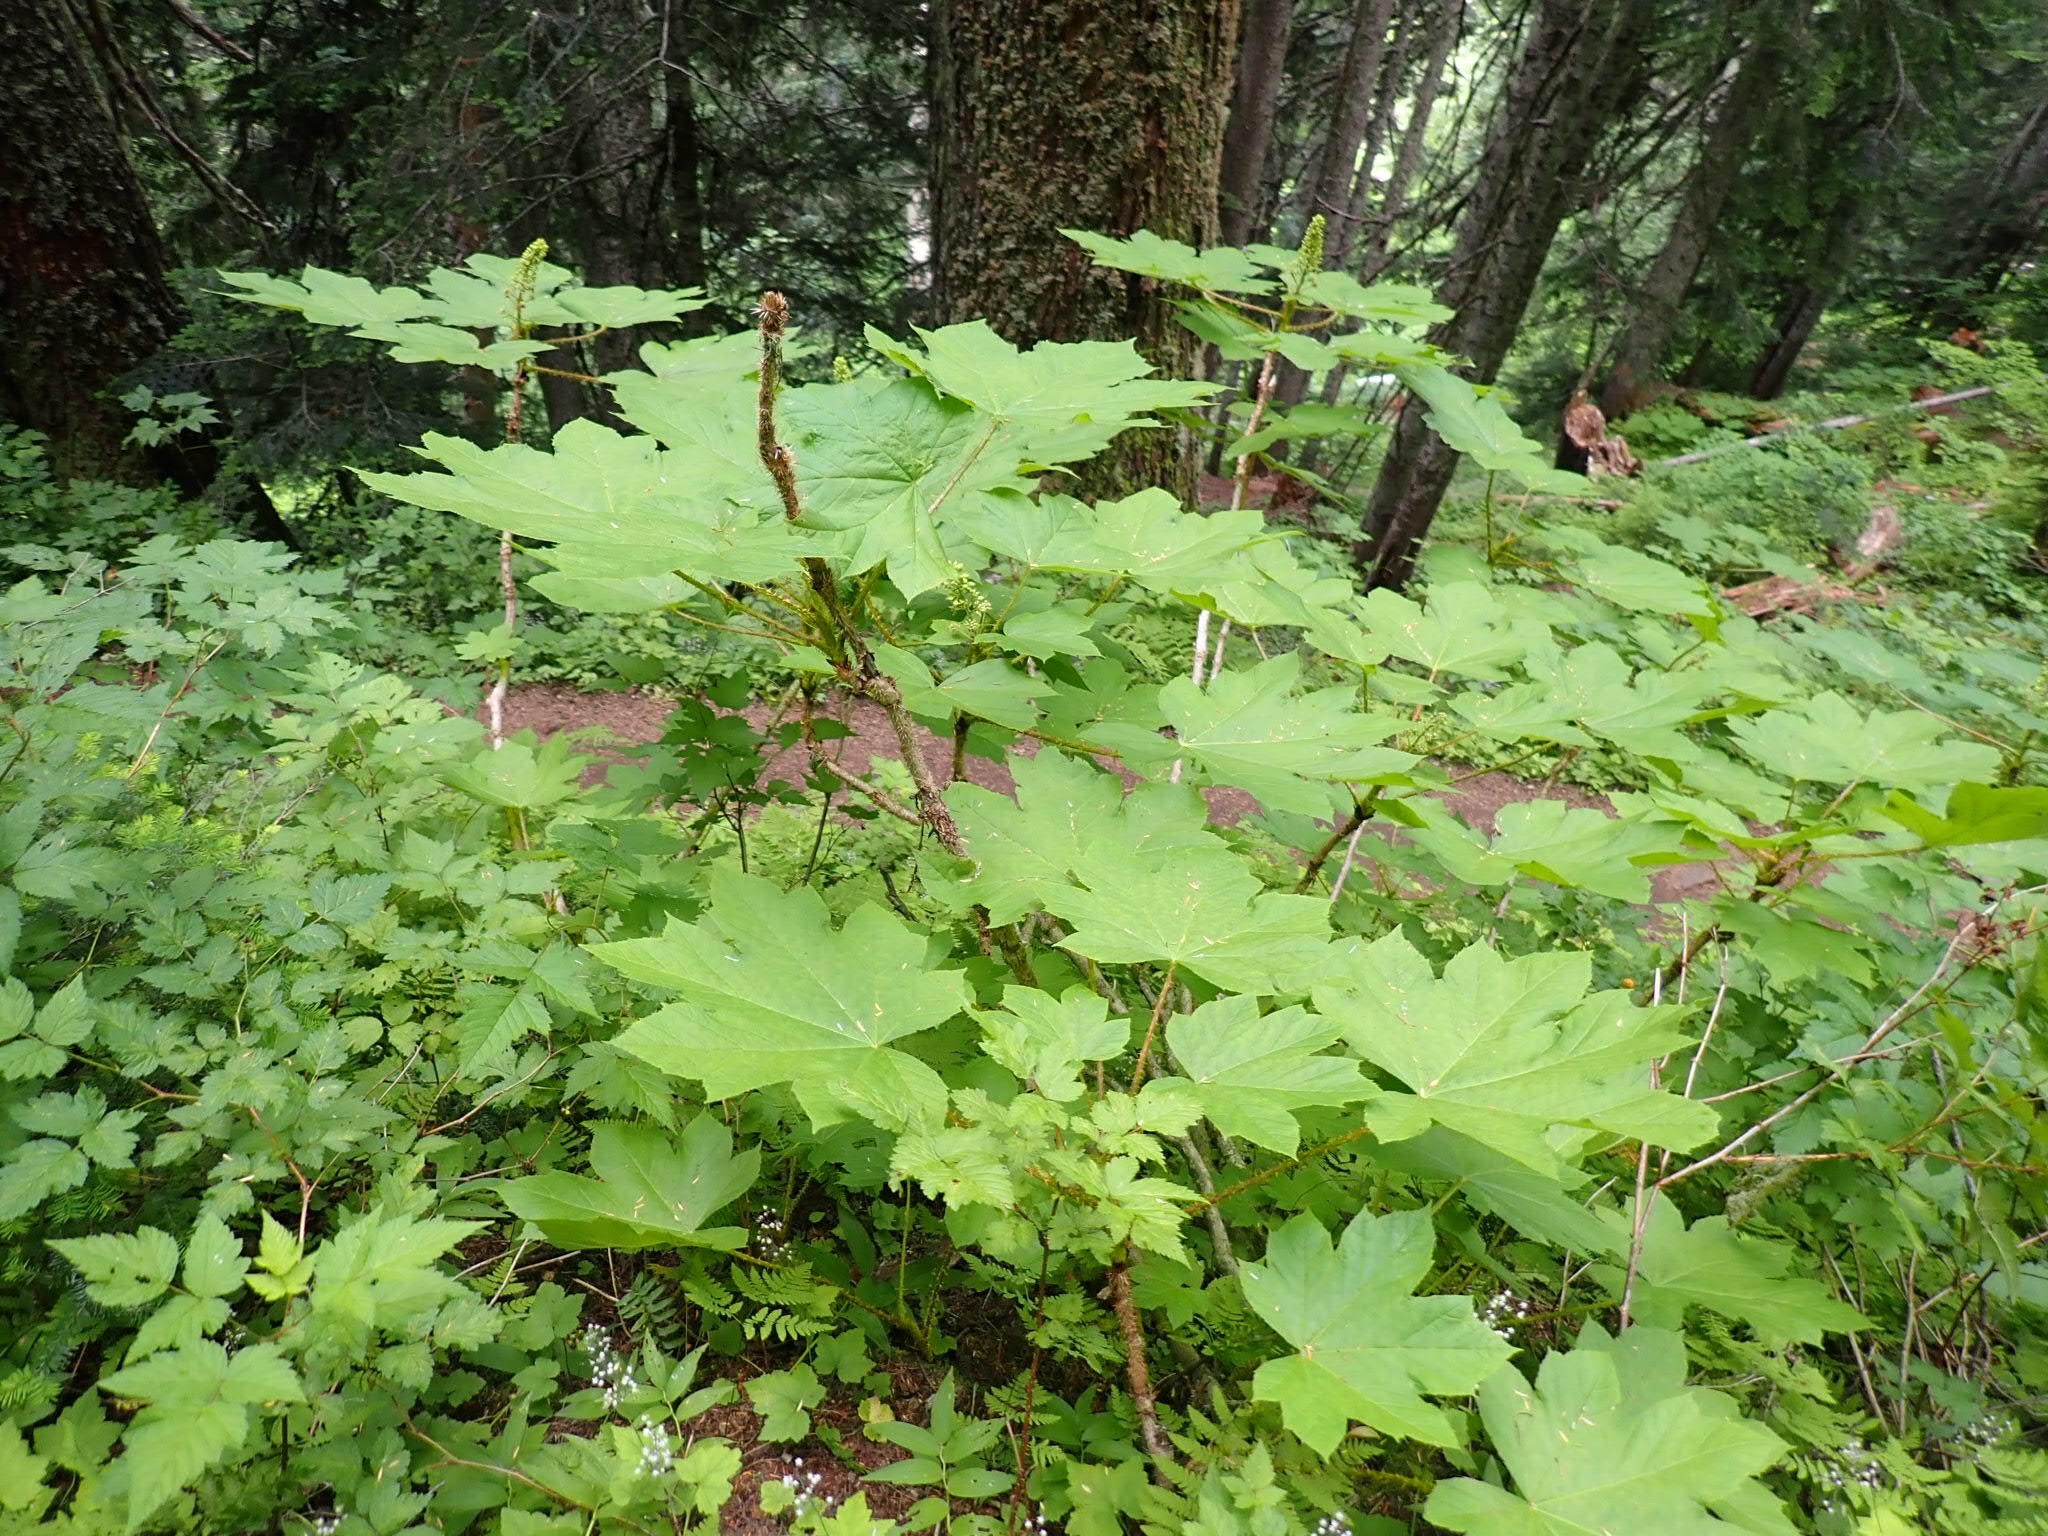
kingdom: Plantae
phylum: Tracheophyta
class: Magnoliopsida
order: Apiales
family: Araliaceae
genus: Oplopanax
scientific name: Oplopanax horridus
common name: Devil's walking-stick
